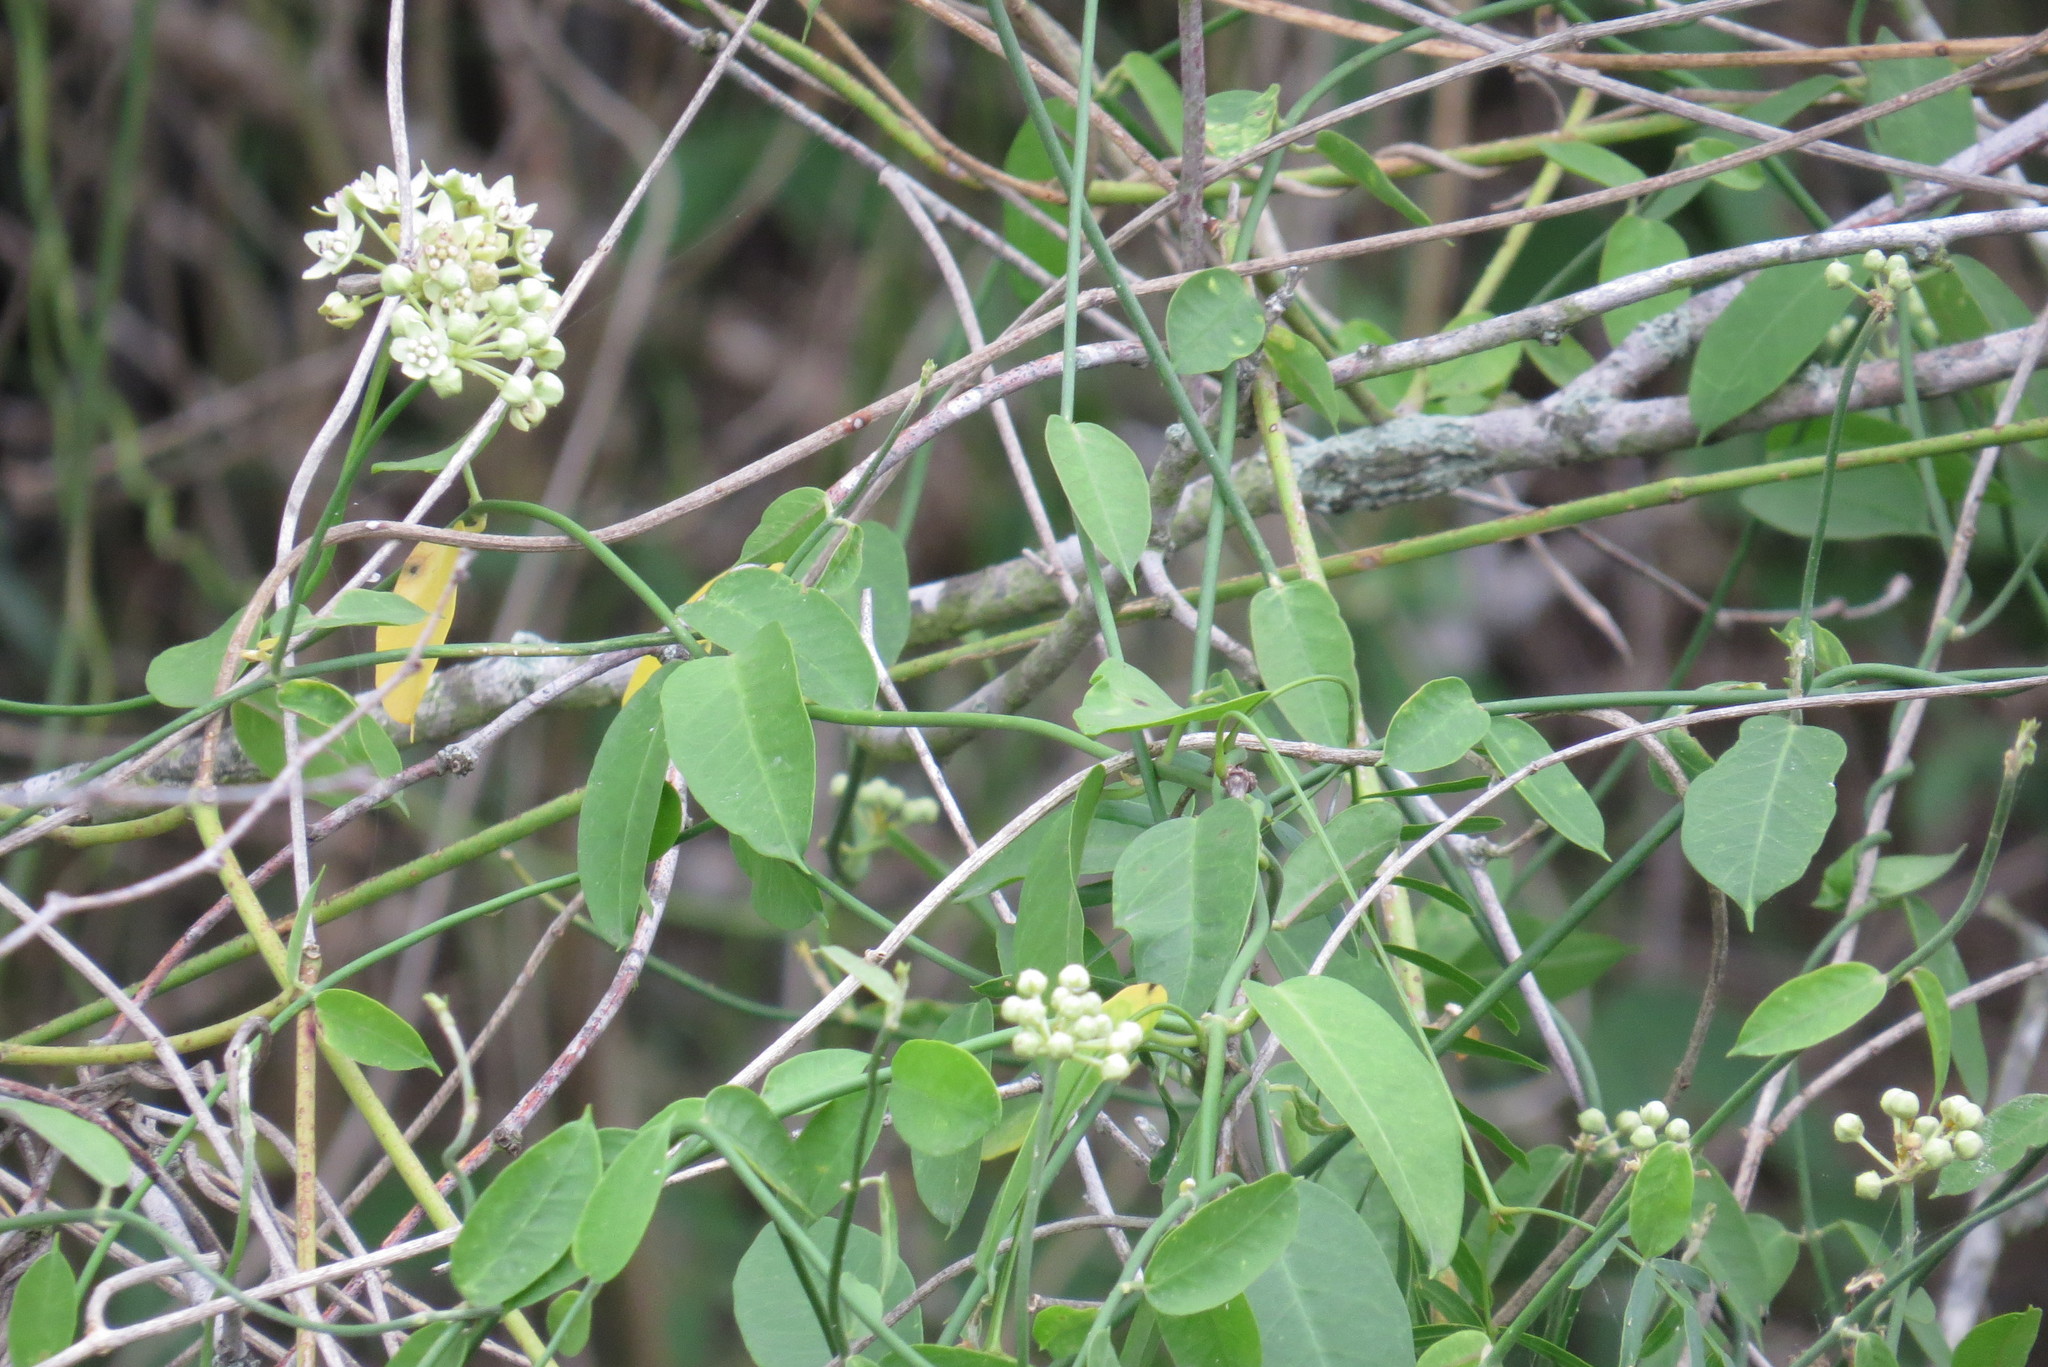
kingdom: Plantae
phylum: Tracheophyta
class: Magnoliopsida
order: Gentianales
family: Apocynaceae
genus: Funastrum
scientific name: Funastrum clausum
